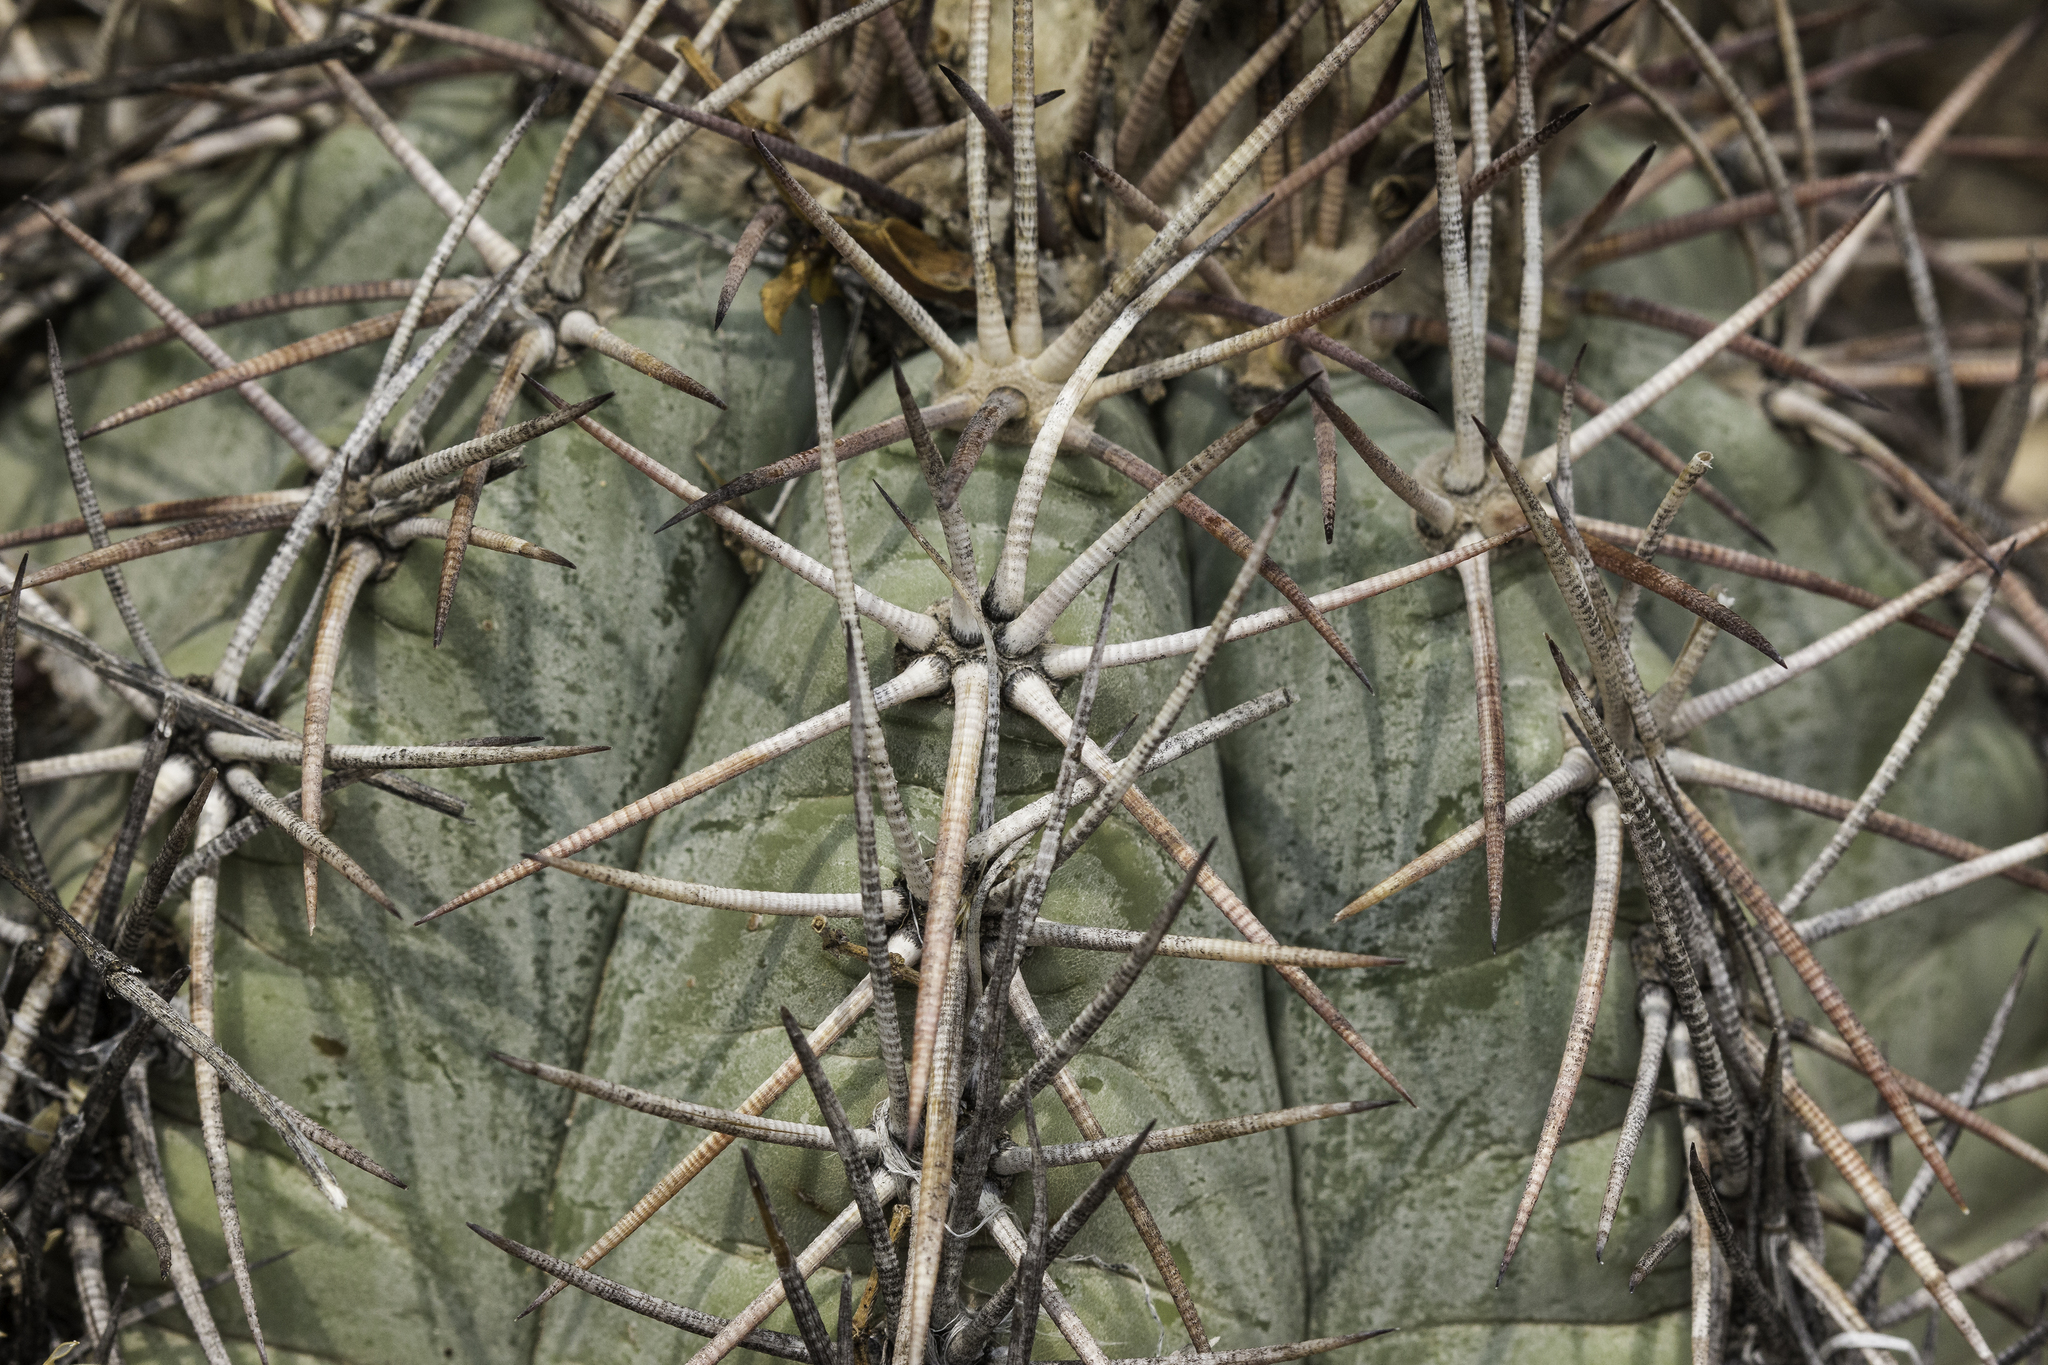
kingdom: Plantae
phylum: Tracheophyta
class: Magnoliopsida
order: Caryophyllales
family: Cactaceae
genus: Echinocactus
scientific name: Echinocactus horizonthalonius
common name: Devilshead
